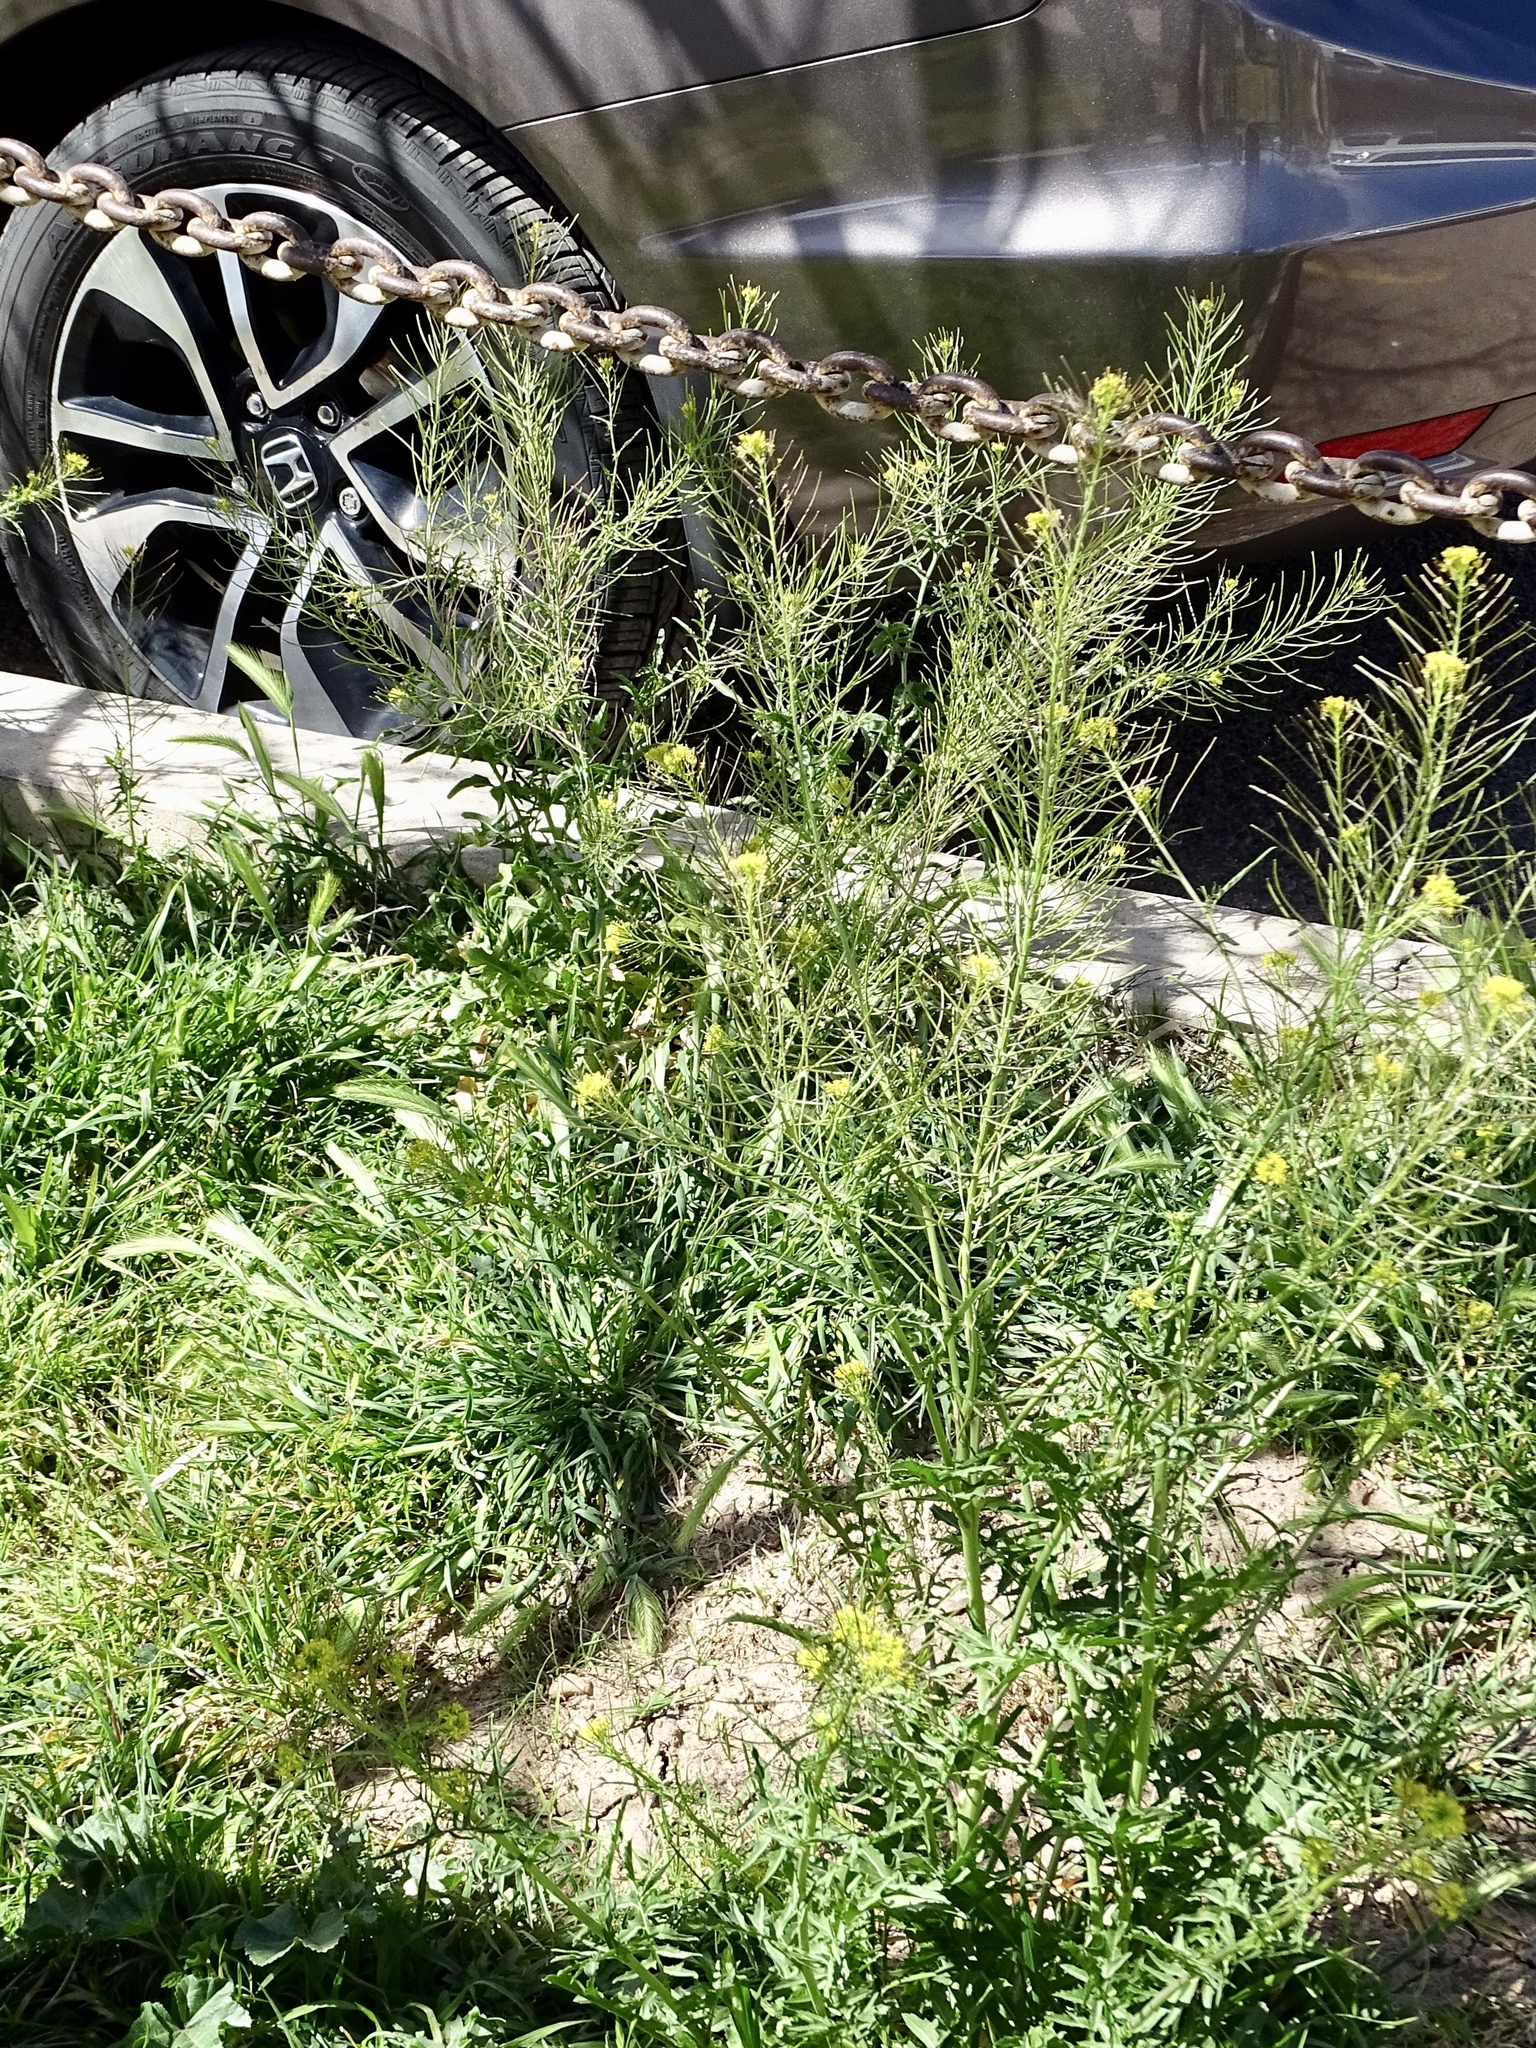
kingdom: Plantae
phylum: Tracheophyta
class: Magnoliopsida
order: Brassicales
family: Brassicaceae
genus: Sisymbrium
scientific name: Sisymbrium irio
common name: London rocket
